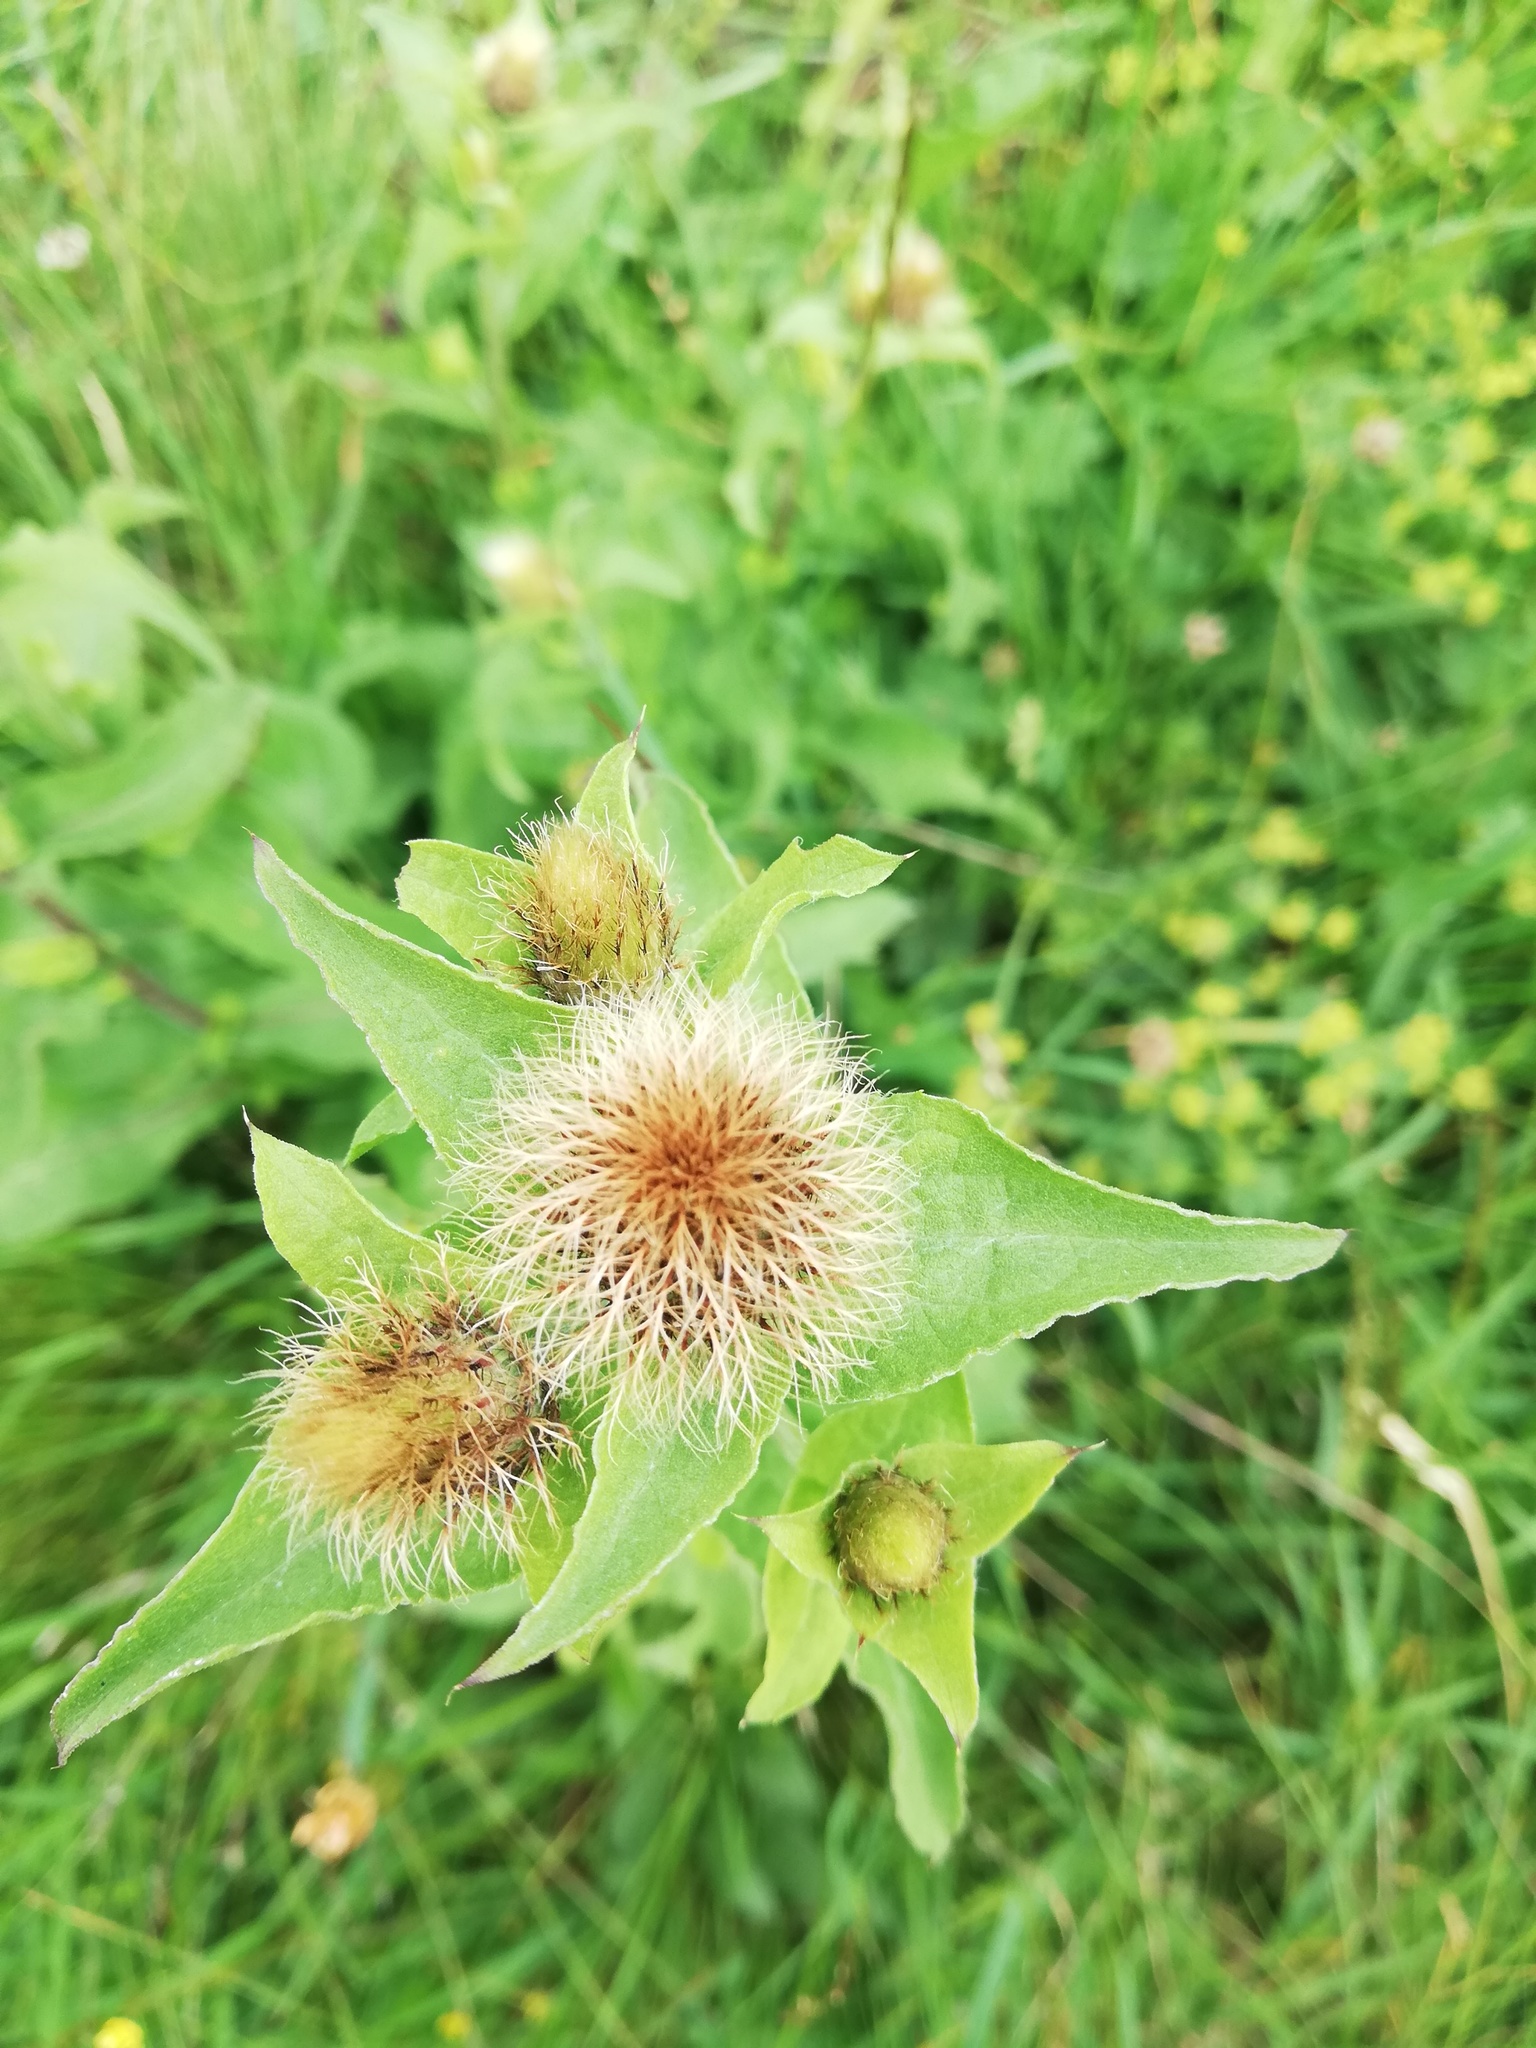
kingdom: Plantae
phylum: Tracheophyta
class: Magnoliopsida
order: Asterales
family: Asteraceae
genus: Centaurea
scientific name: Centaurea pseudophrygia
